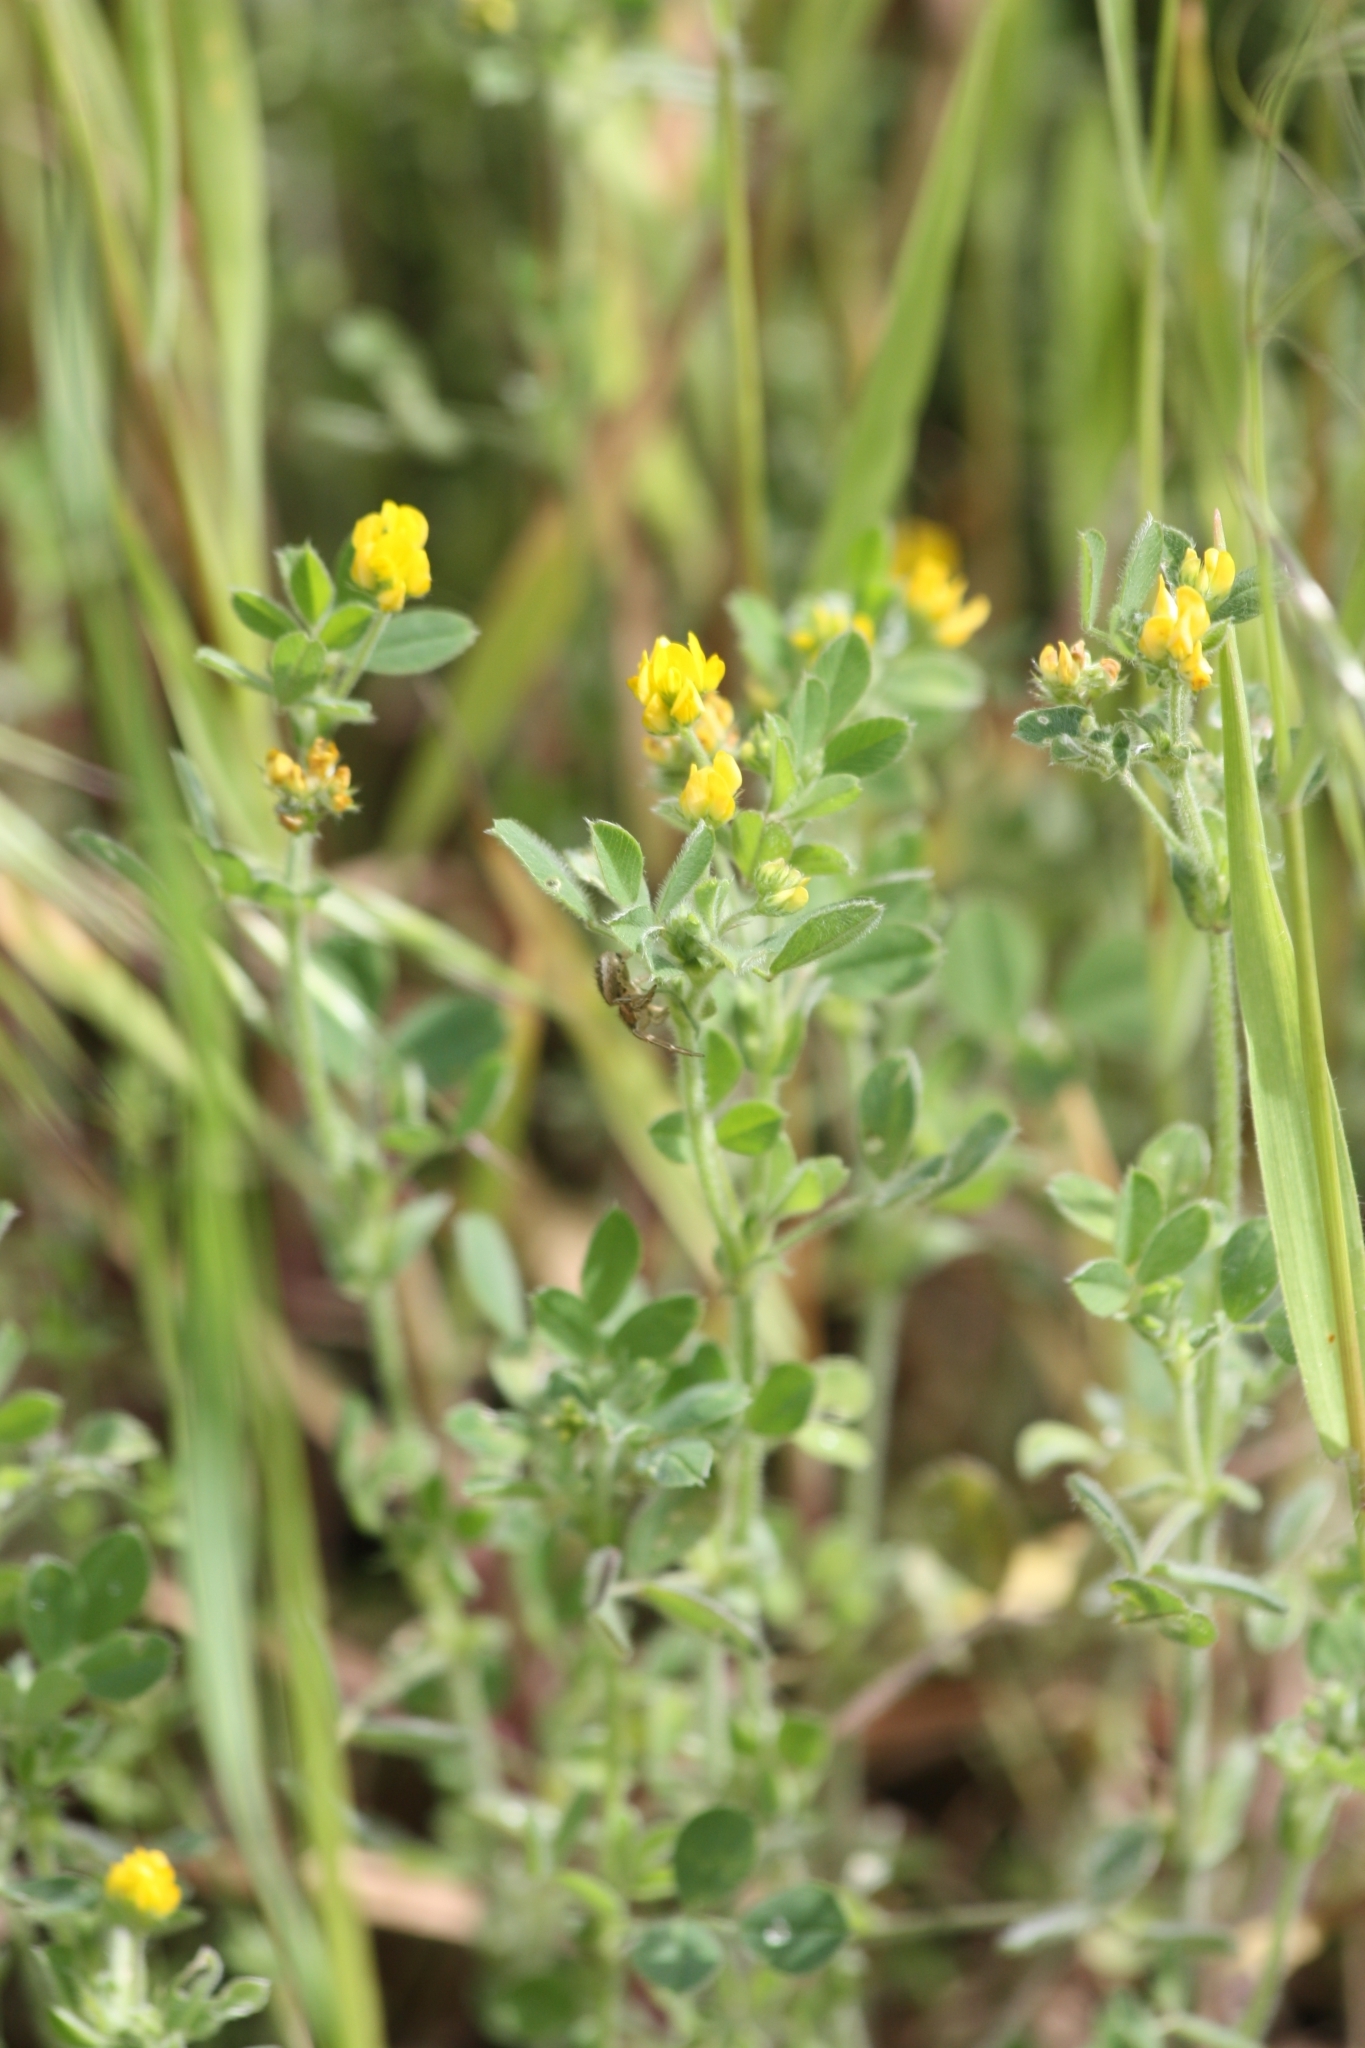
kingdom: Plantae
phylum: Tracheophyta
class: Magnoliopsida
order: Fabales
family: Fabaceae
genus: Medicago
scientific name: Medicago minima
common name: Little bur-clover
